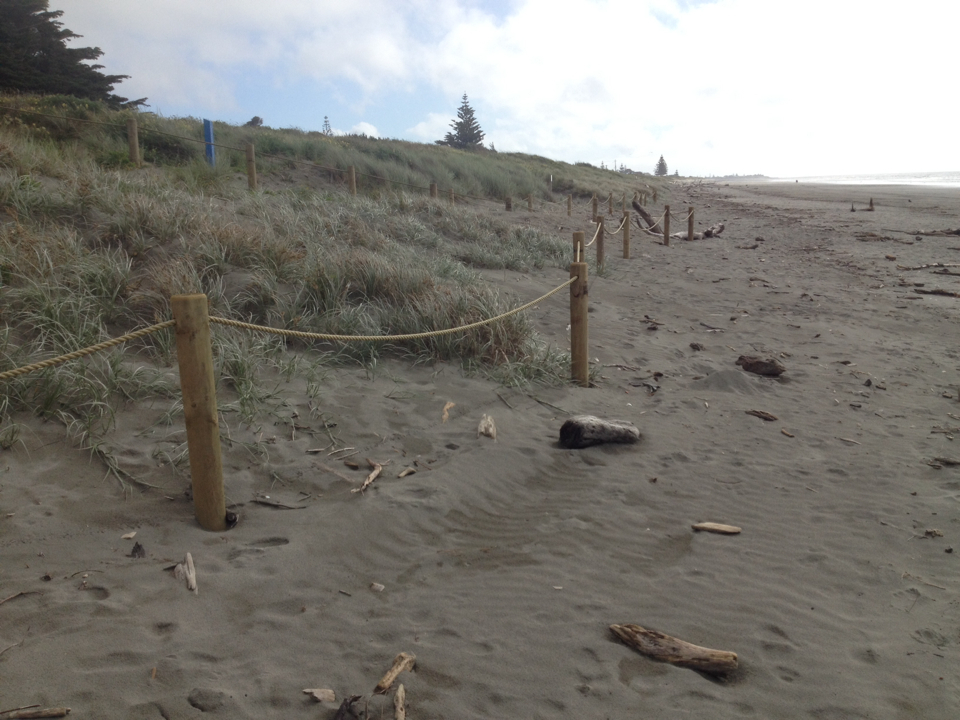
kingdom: Plantae
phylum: Tracheophyta
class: Liliopsida
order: Poales
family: Poaceae
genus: Spinifex
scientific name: Spinifex sericeus
